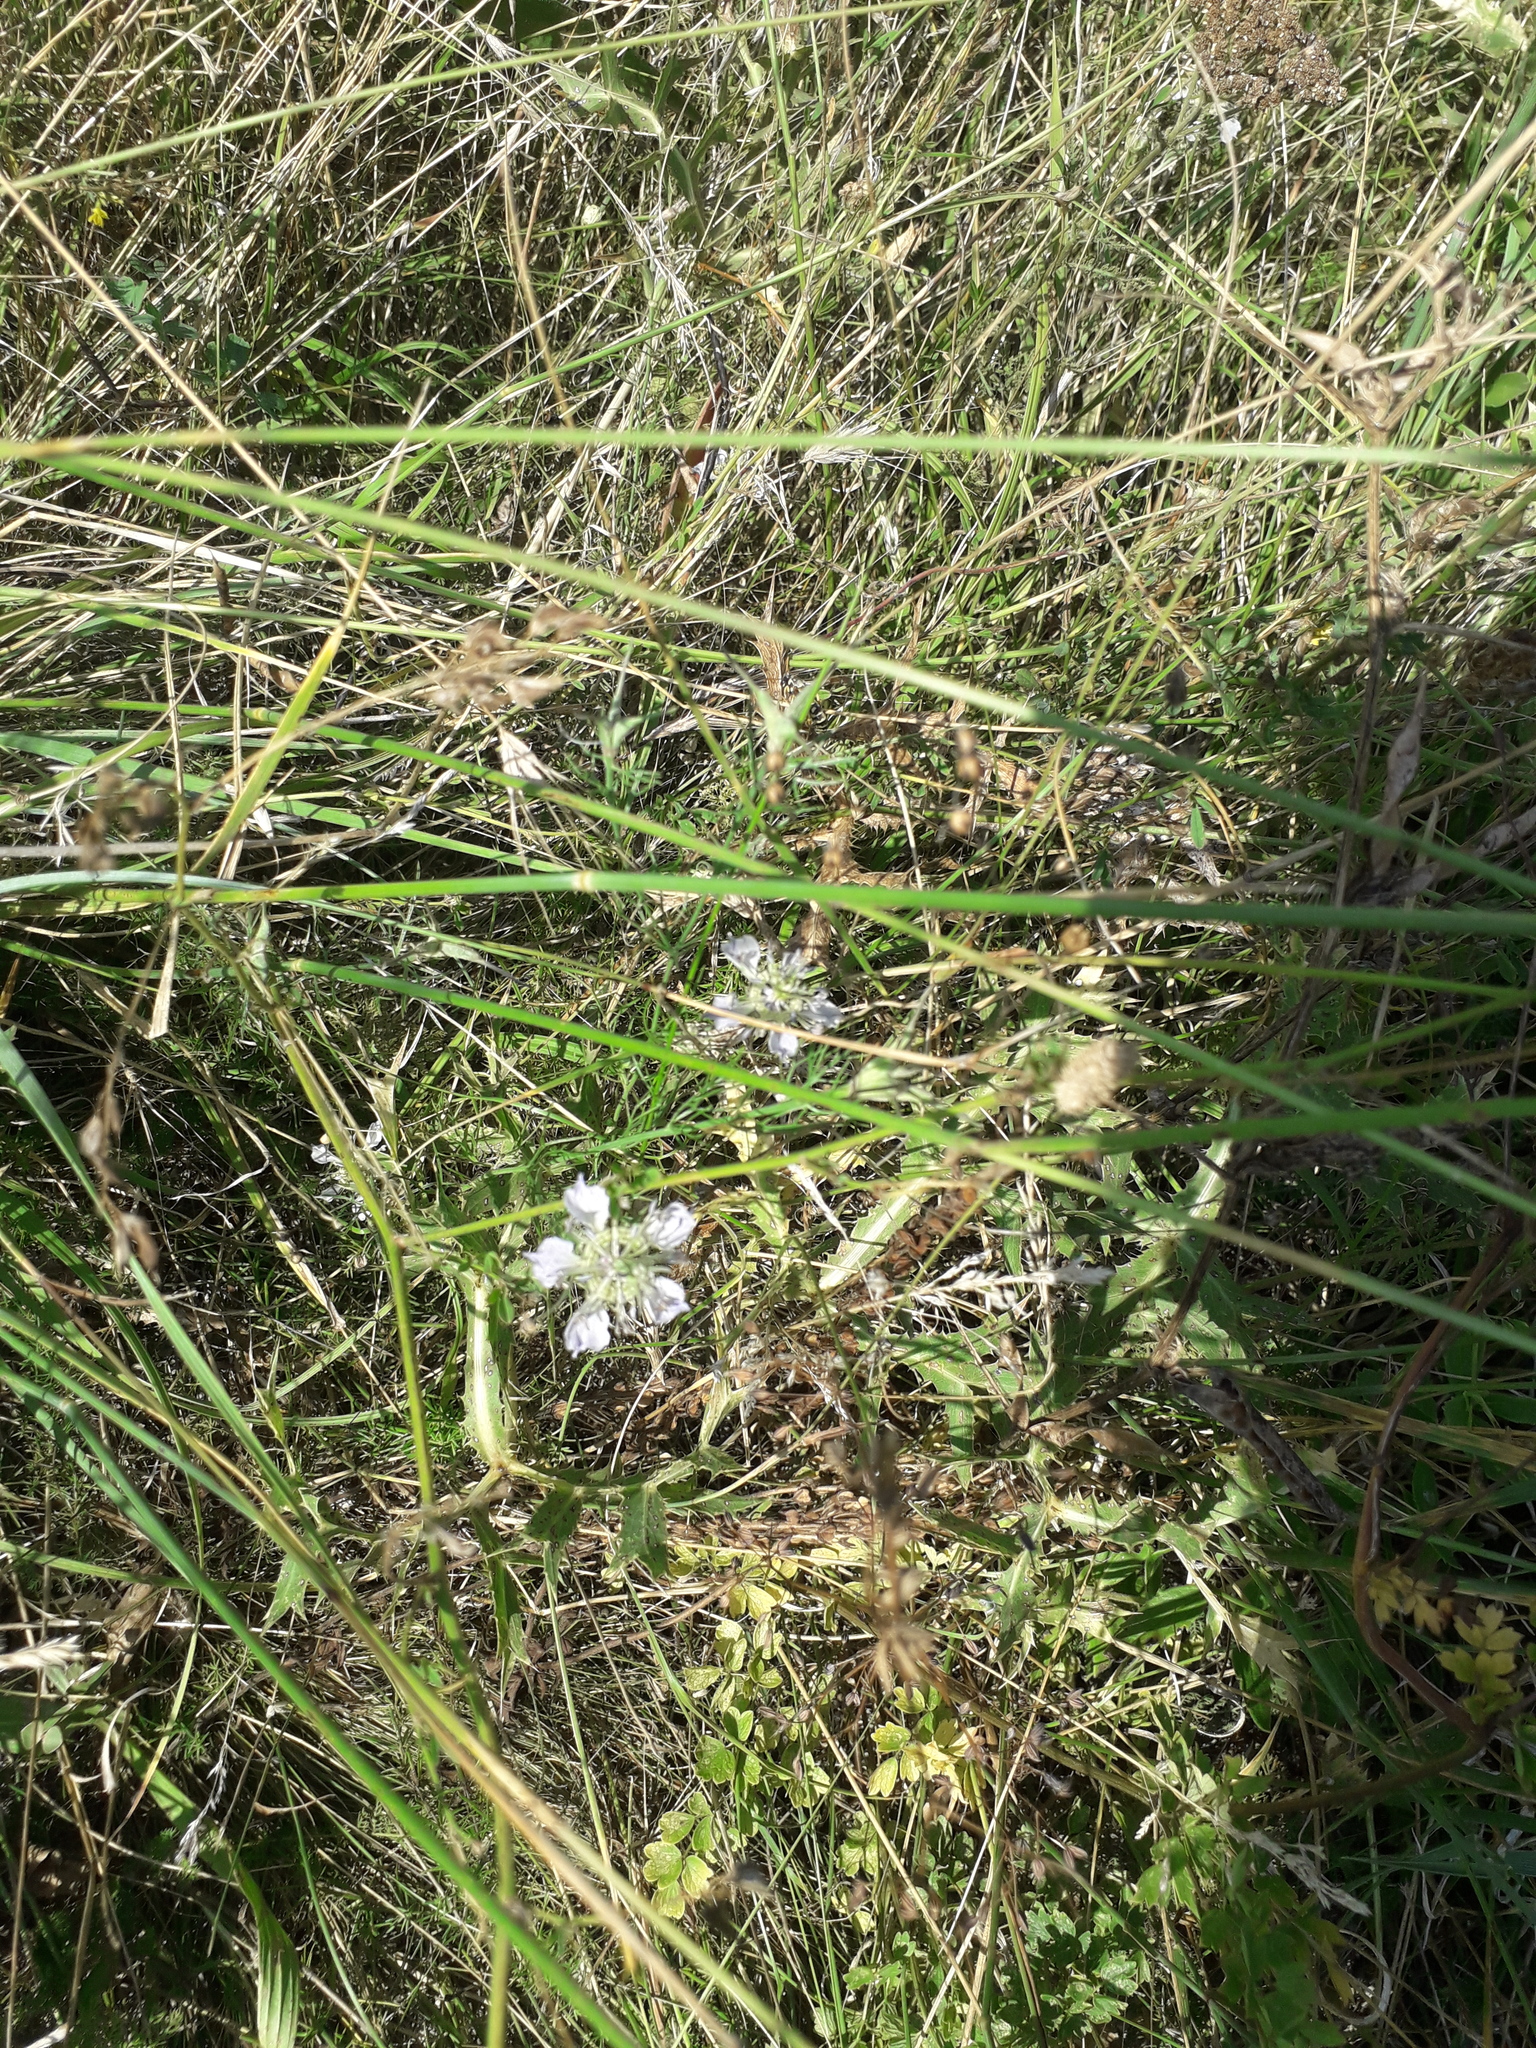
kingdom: Plantae
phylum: Tracheophyta
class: Magnoliopsida
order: Ranunculales
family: Ranunculaceae
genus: Nigella
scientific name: Nigella arvensis
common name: Wild fennel-flower
